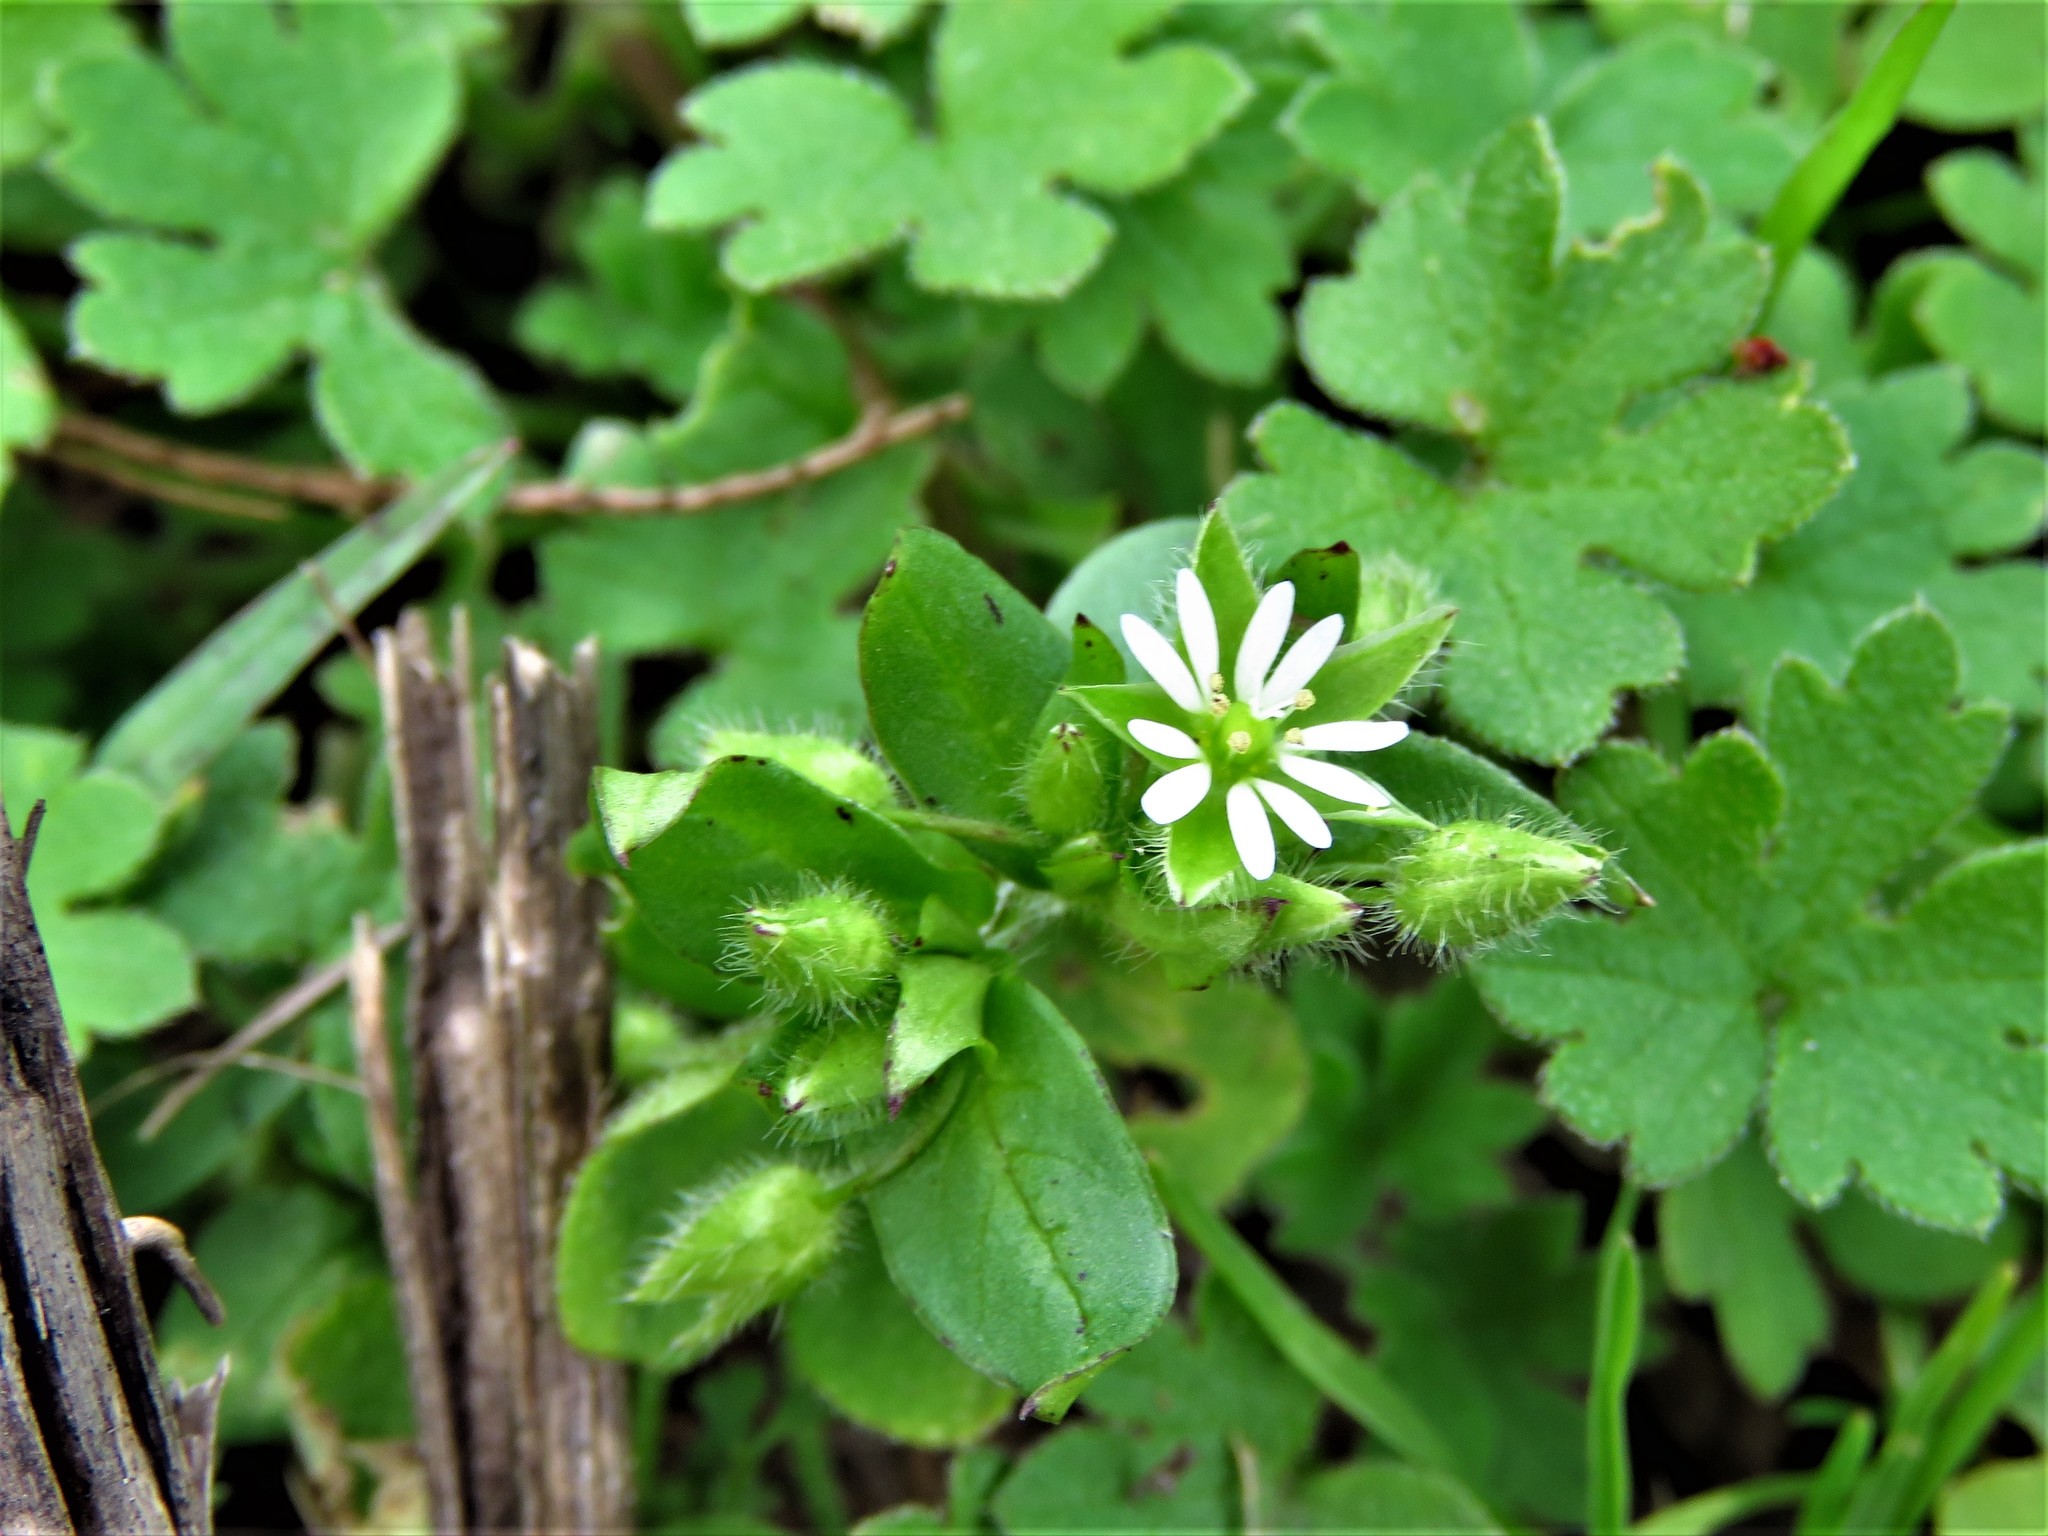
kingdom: Plantae
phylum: Tracheophyta
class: Magnoliopsida
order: Caryophyllales
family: Caryophyllaceae
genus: Stellaria
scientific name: Stellaria media
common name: Common chickweed
